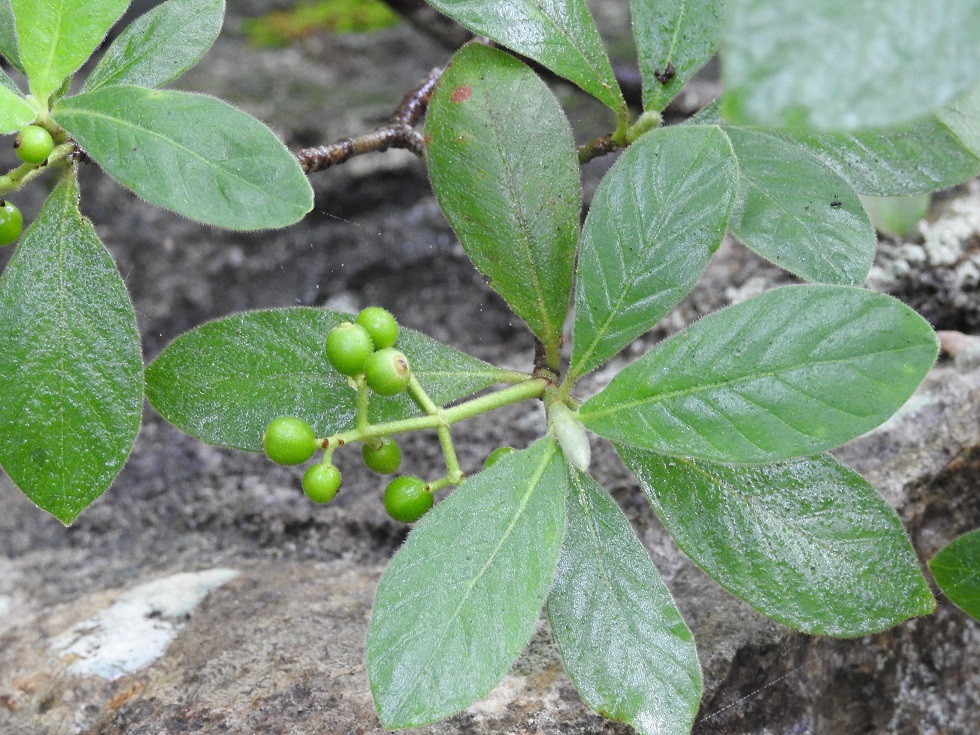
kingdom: Plantae
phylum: Tracheophyta
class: Magnoliopsida
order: Gentianales
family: Rubiaceae
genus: Psychotria
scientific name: Psychotria erythrocarpa
